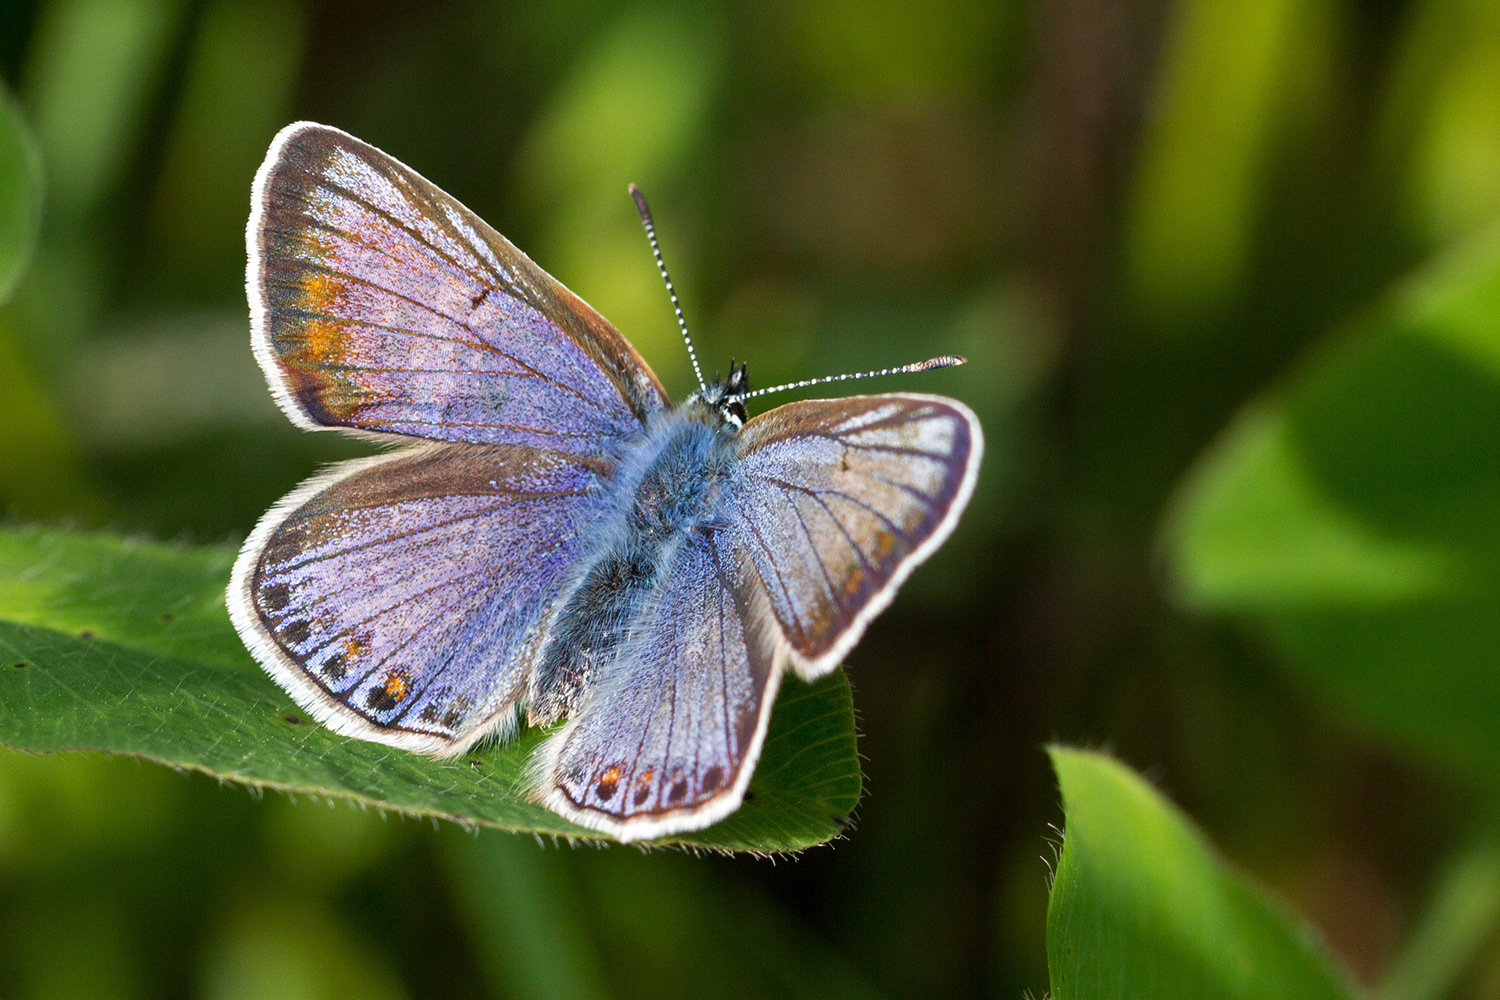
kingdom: Animalia
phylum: Arthropoda
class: Insecta
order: Lepidoptera
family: Lycaenidae
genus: Polyommatus
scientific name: Polyommatus icarus
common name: Common blue
